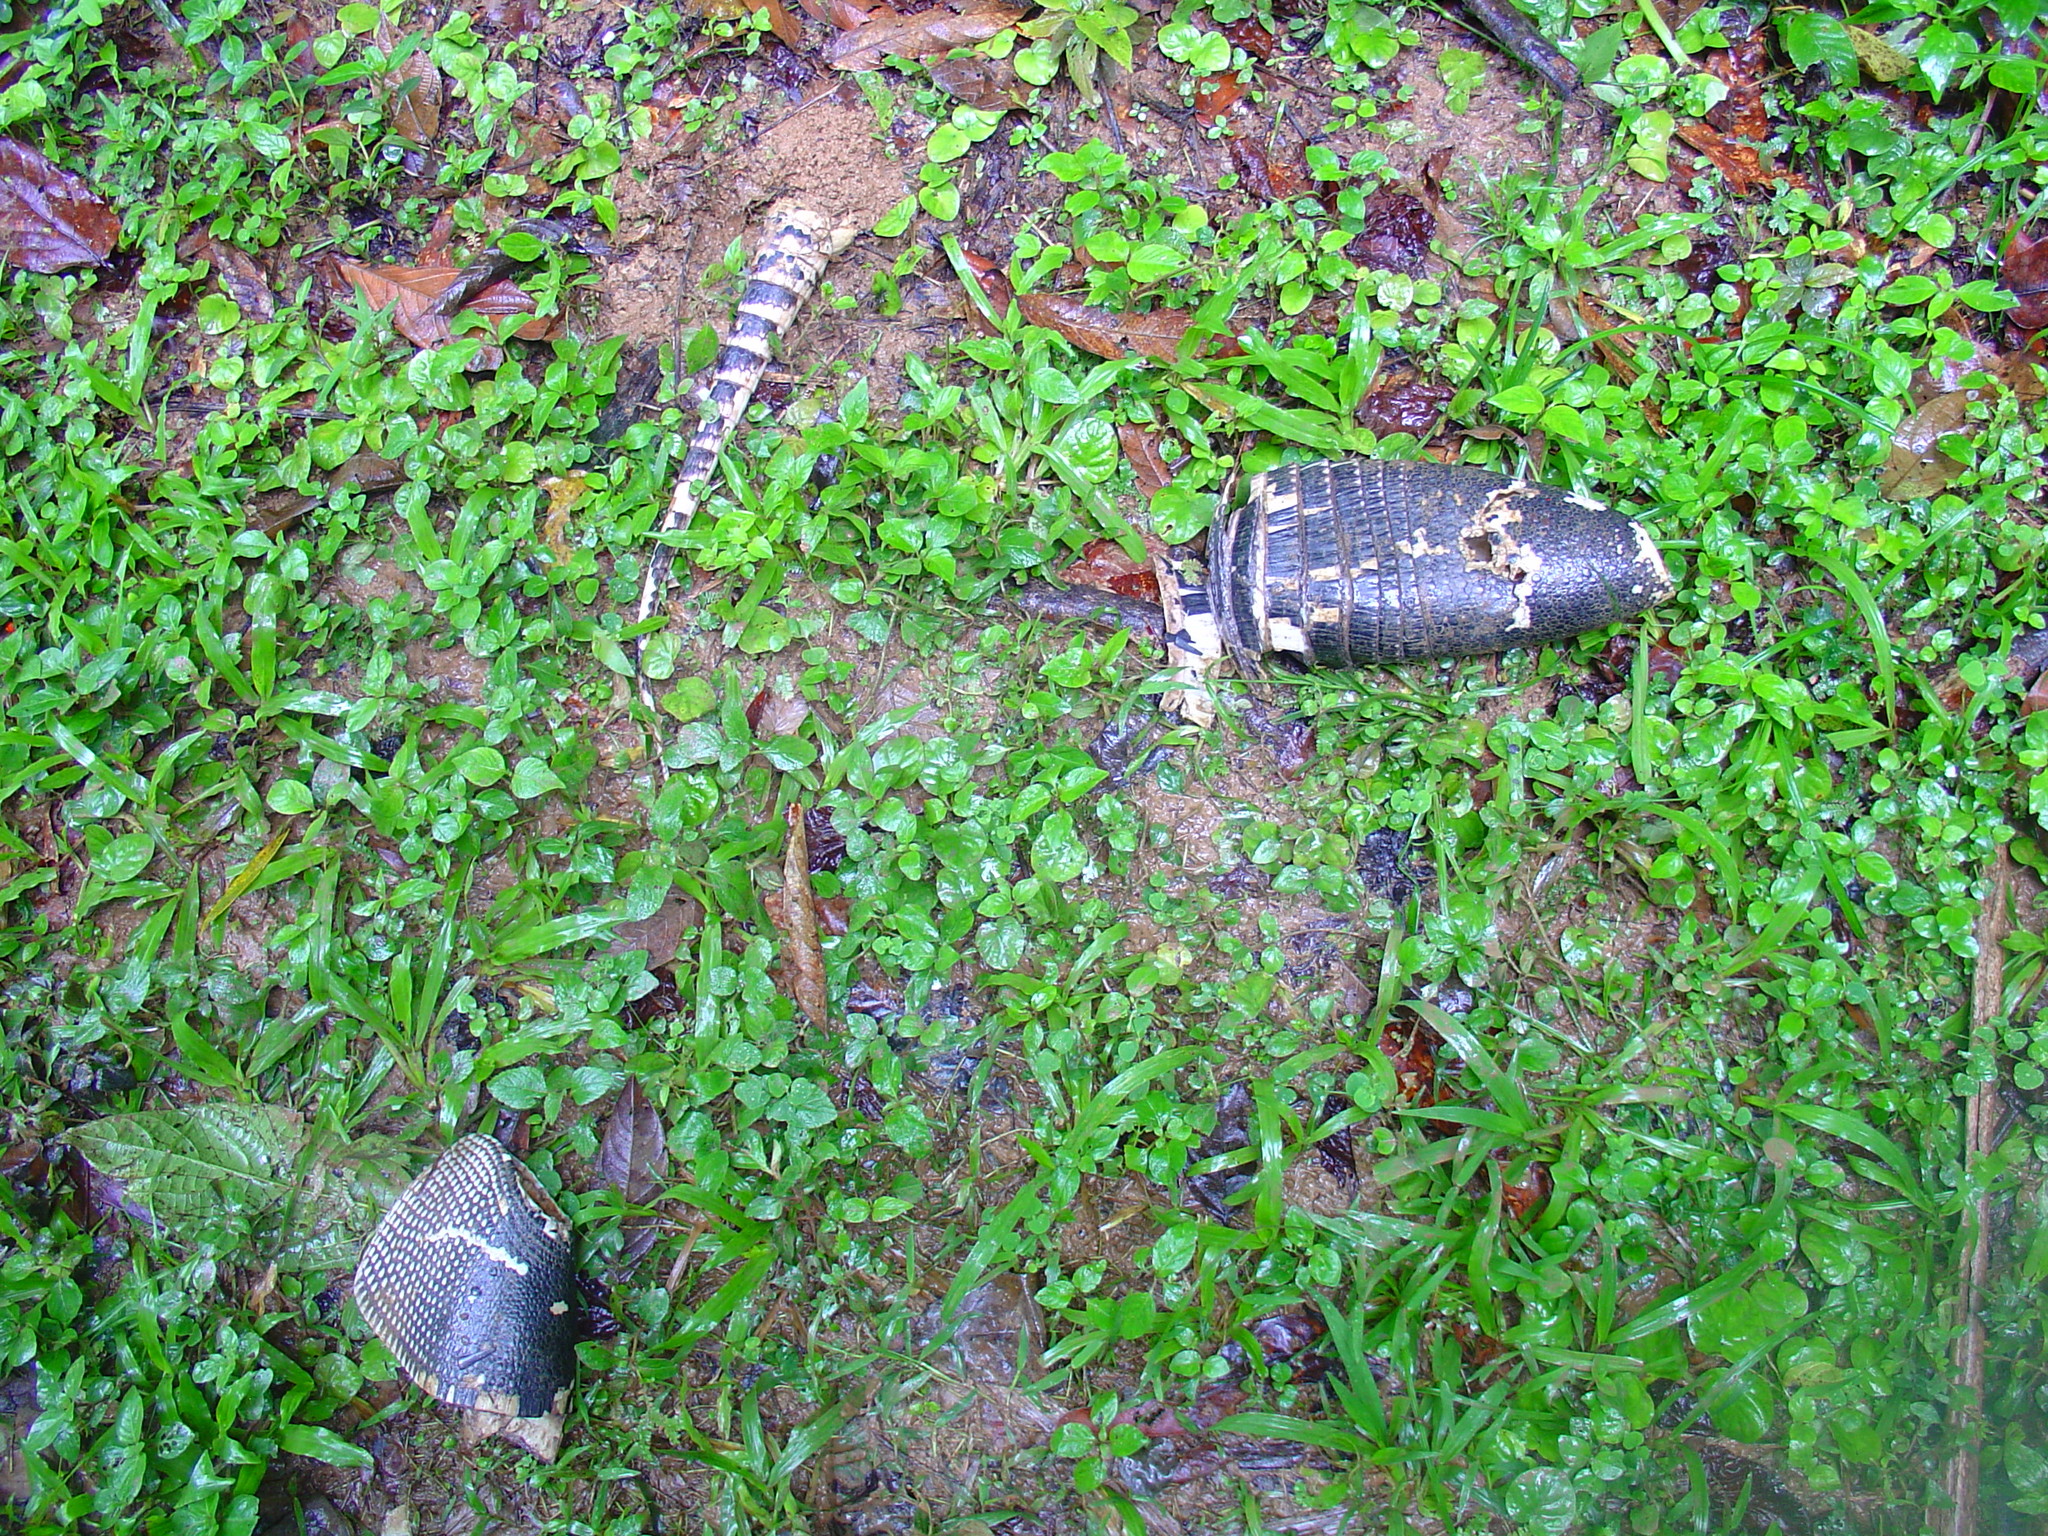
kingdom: Animalia
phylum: Chordata
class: Mammalia
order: Cingulata
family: Dasypodidae
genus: Dasypus
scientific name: Dasypus novemcinctus
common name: Nine-banded armadillo
